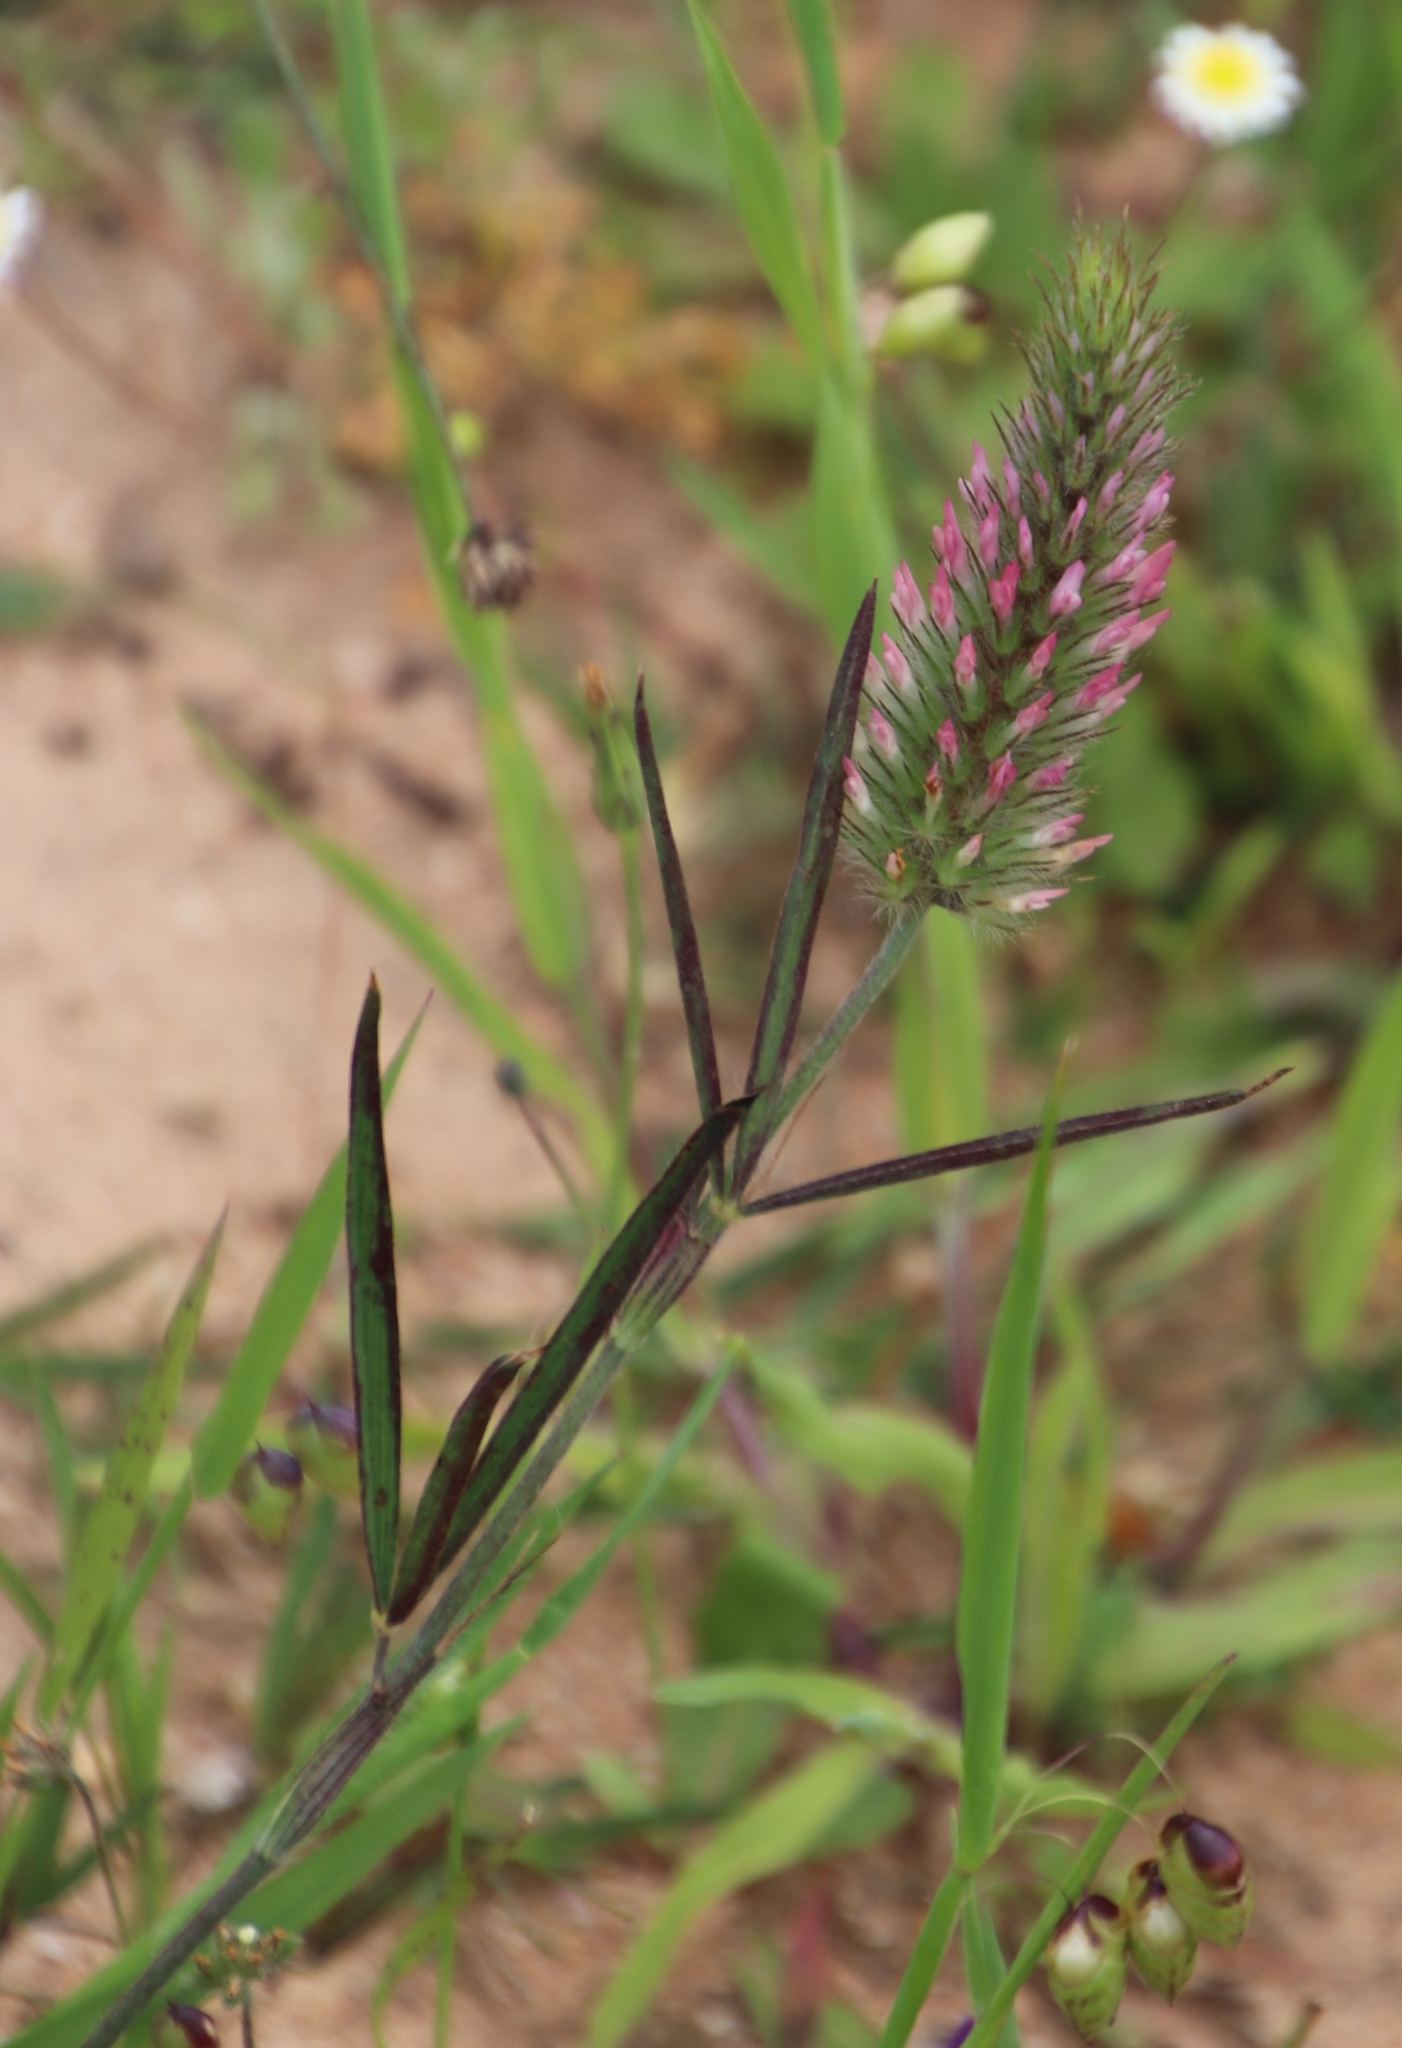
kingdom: Plantae
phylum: Tracheophyta
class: Magnoliopsida
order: Fabales
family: Fabaceae
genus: Trifolium
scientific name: Trifolium angustifolium
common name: Narrow clover
